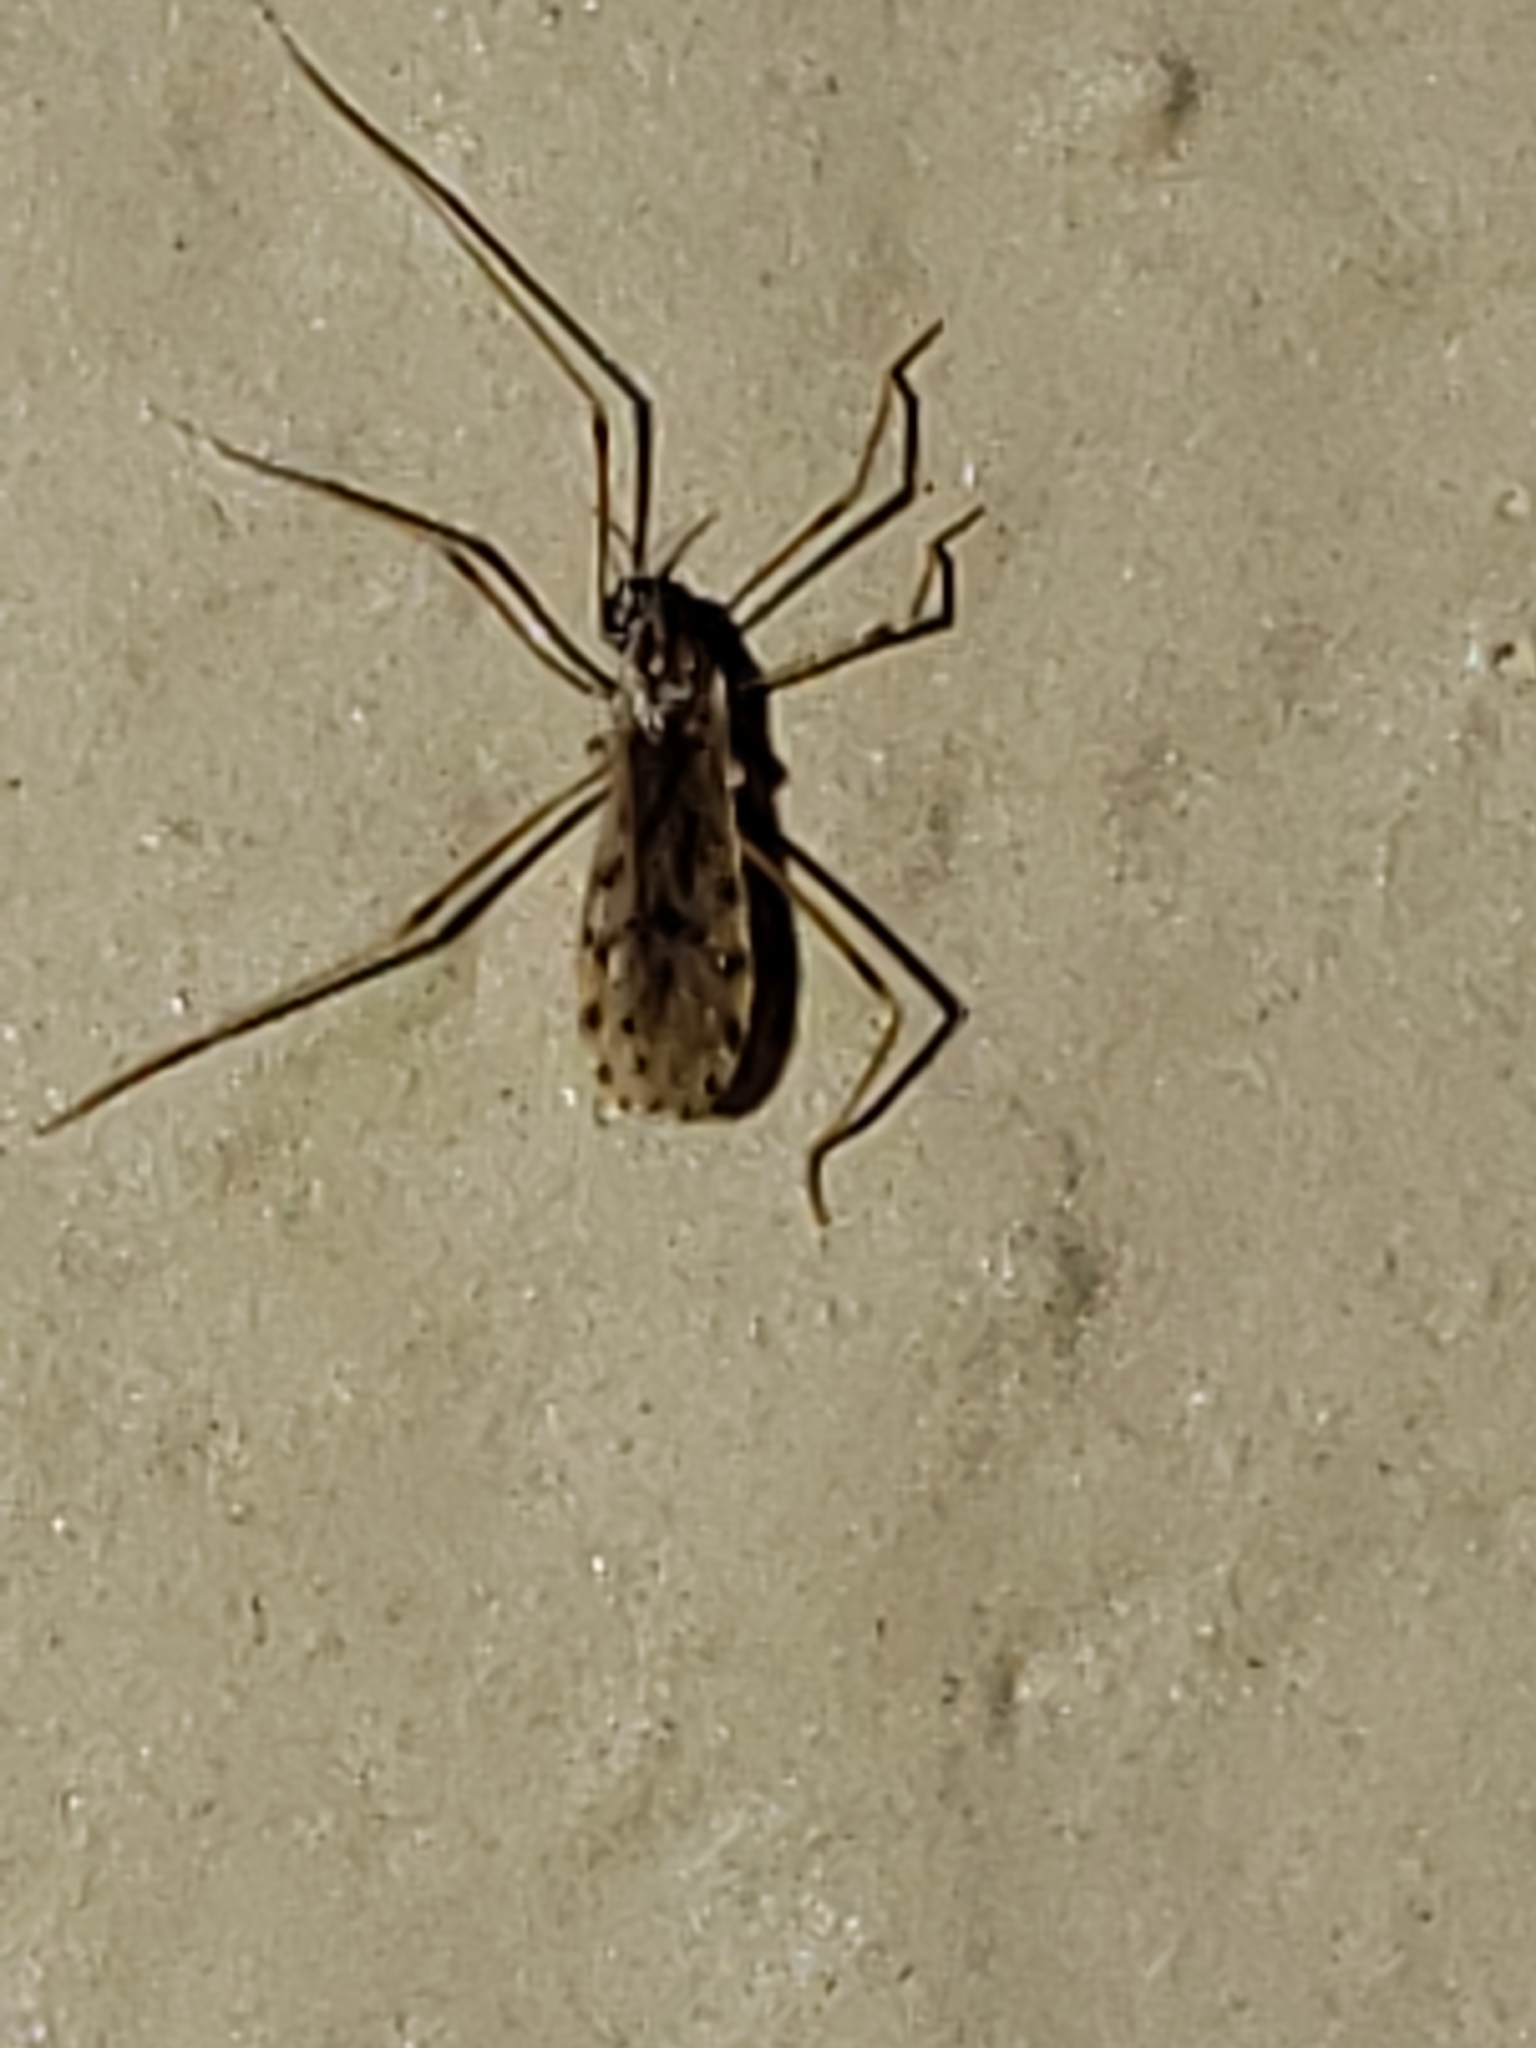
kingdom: Animalia
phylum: Arthropoda
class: Insecta
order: Diptera
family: Limoniidae
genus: Erioptera
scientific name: Erioptera parva
